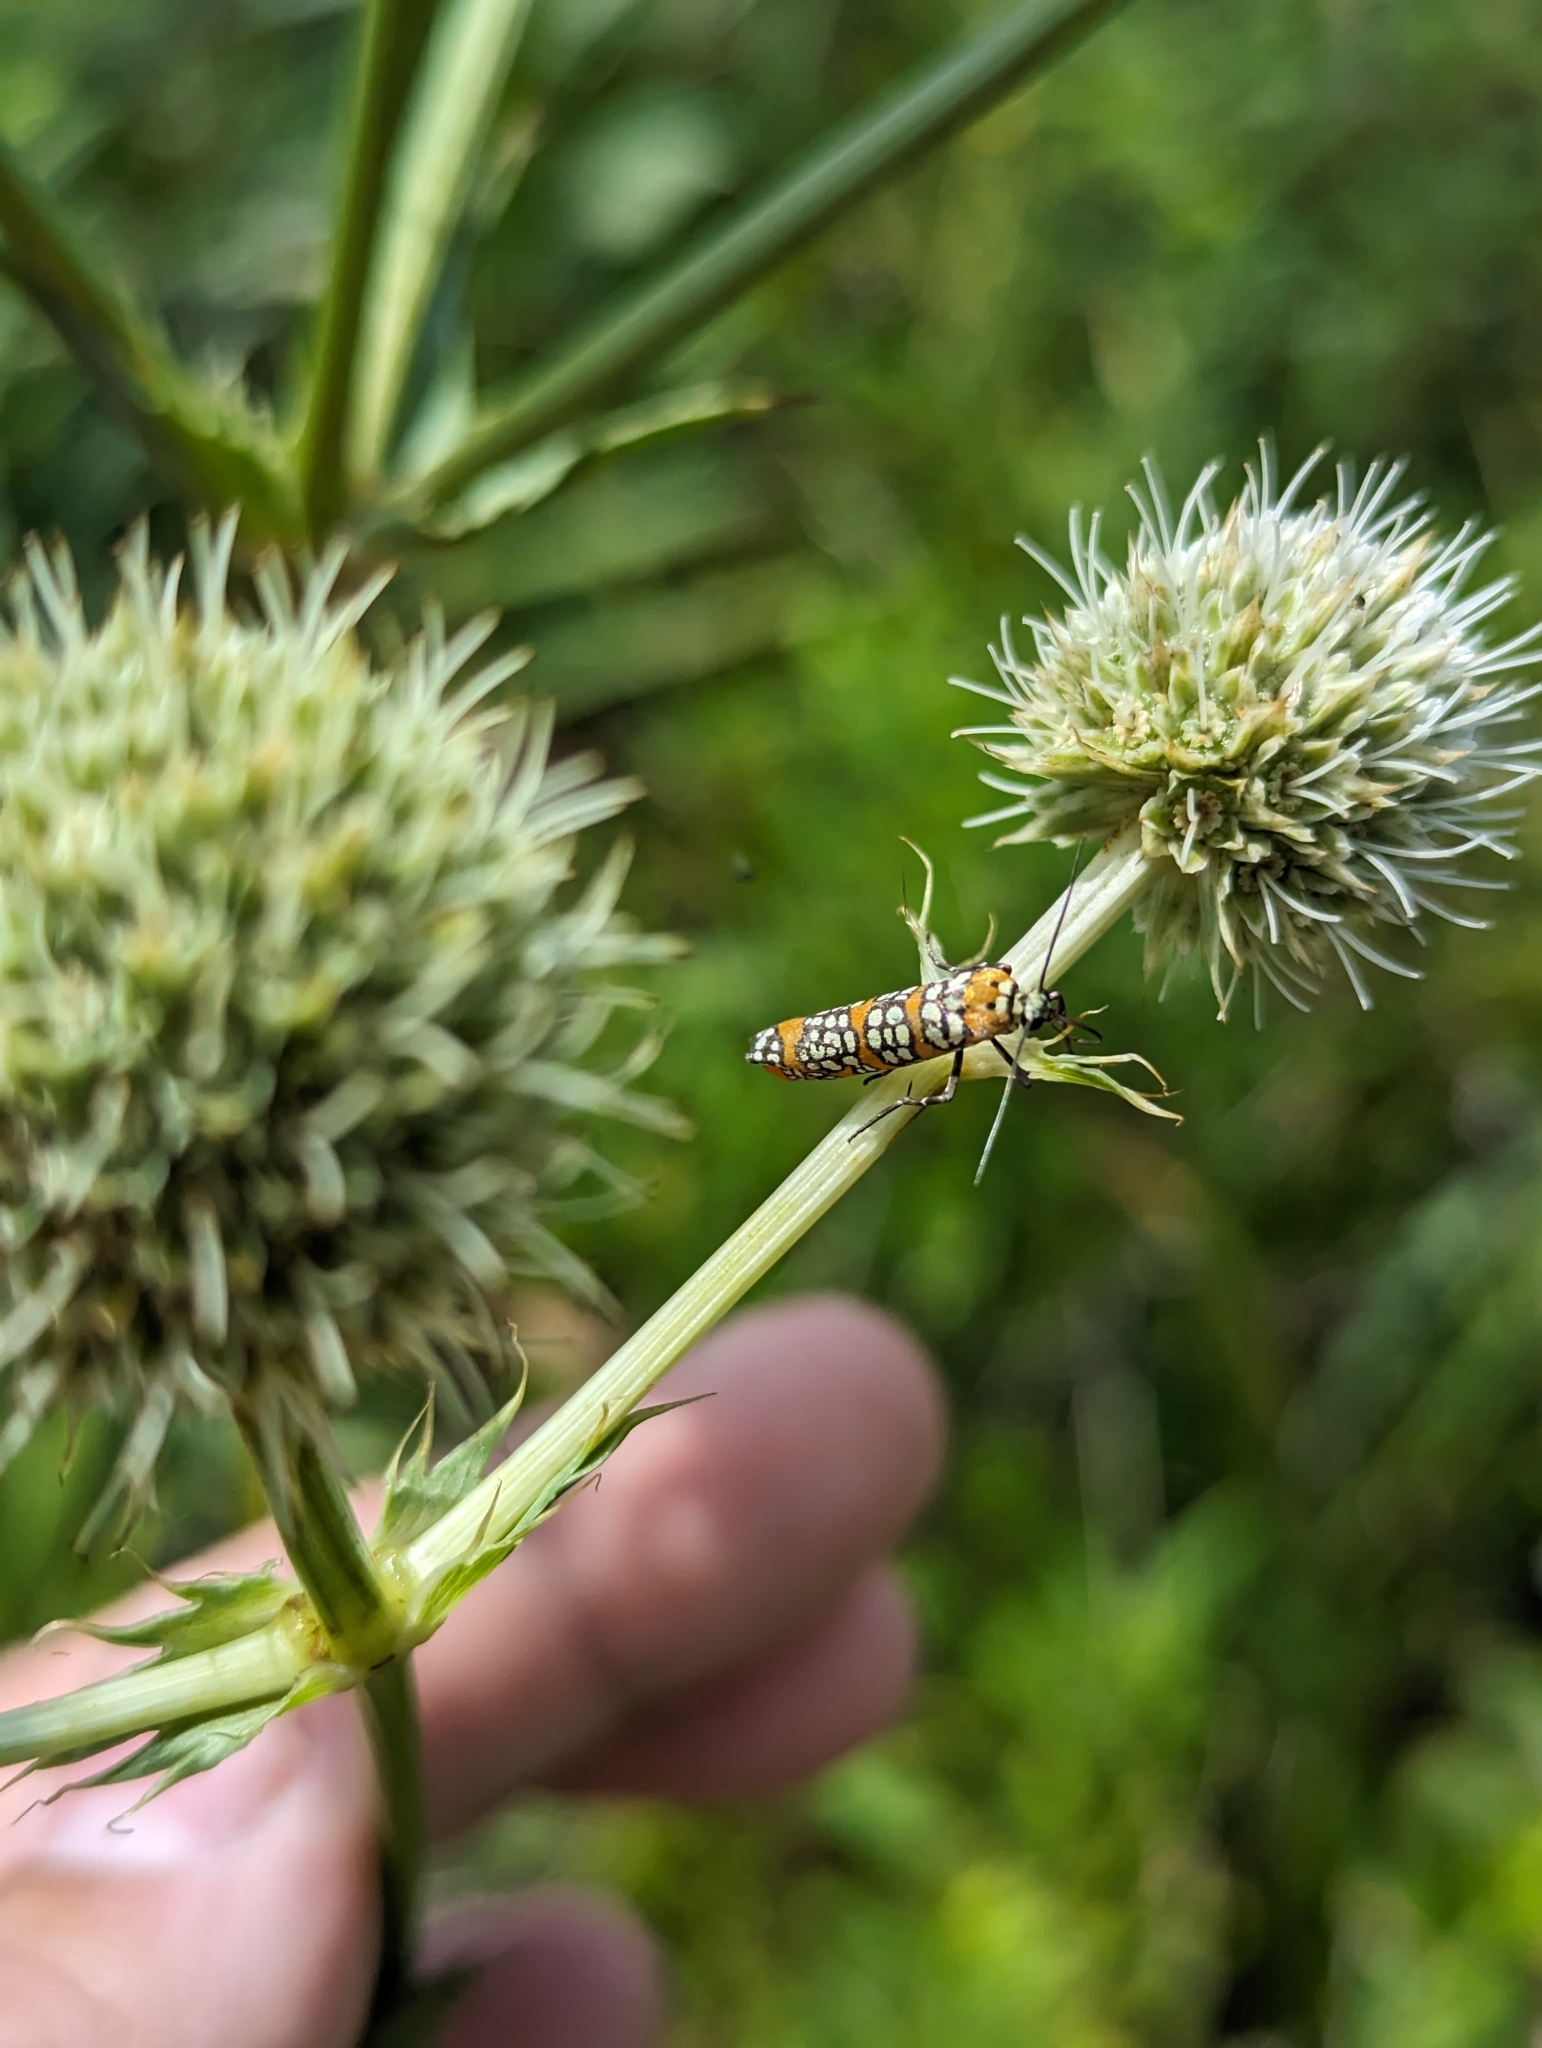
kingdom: Animalia
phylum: Arthropoda
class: Insecta
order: Lepidoptera
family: Attevidae
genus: Atteva
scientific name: Atteva punctella
